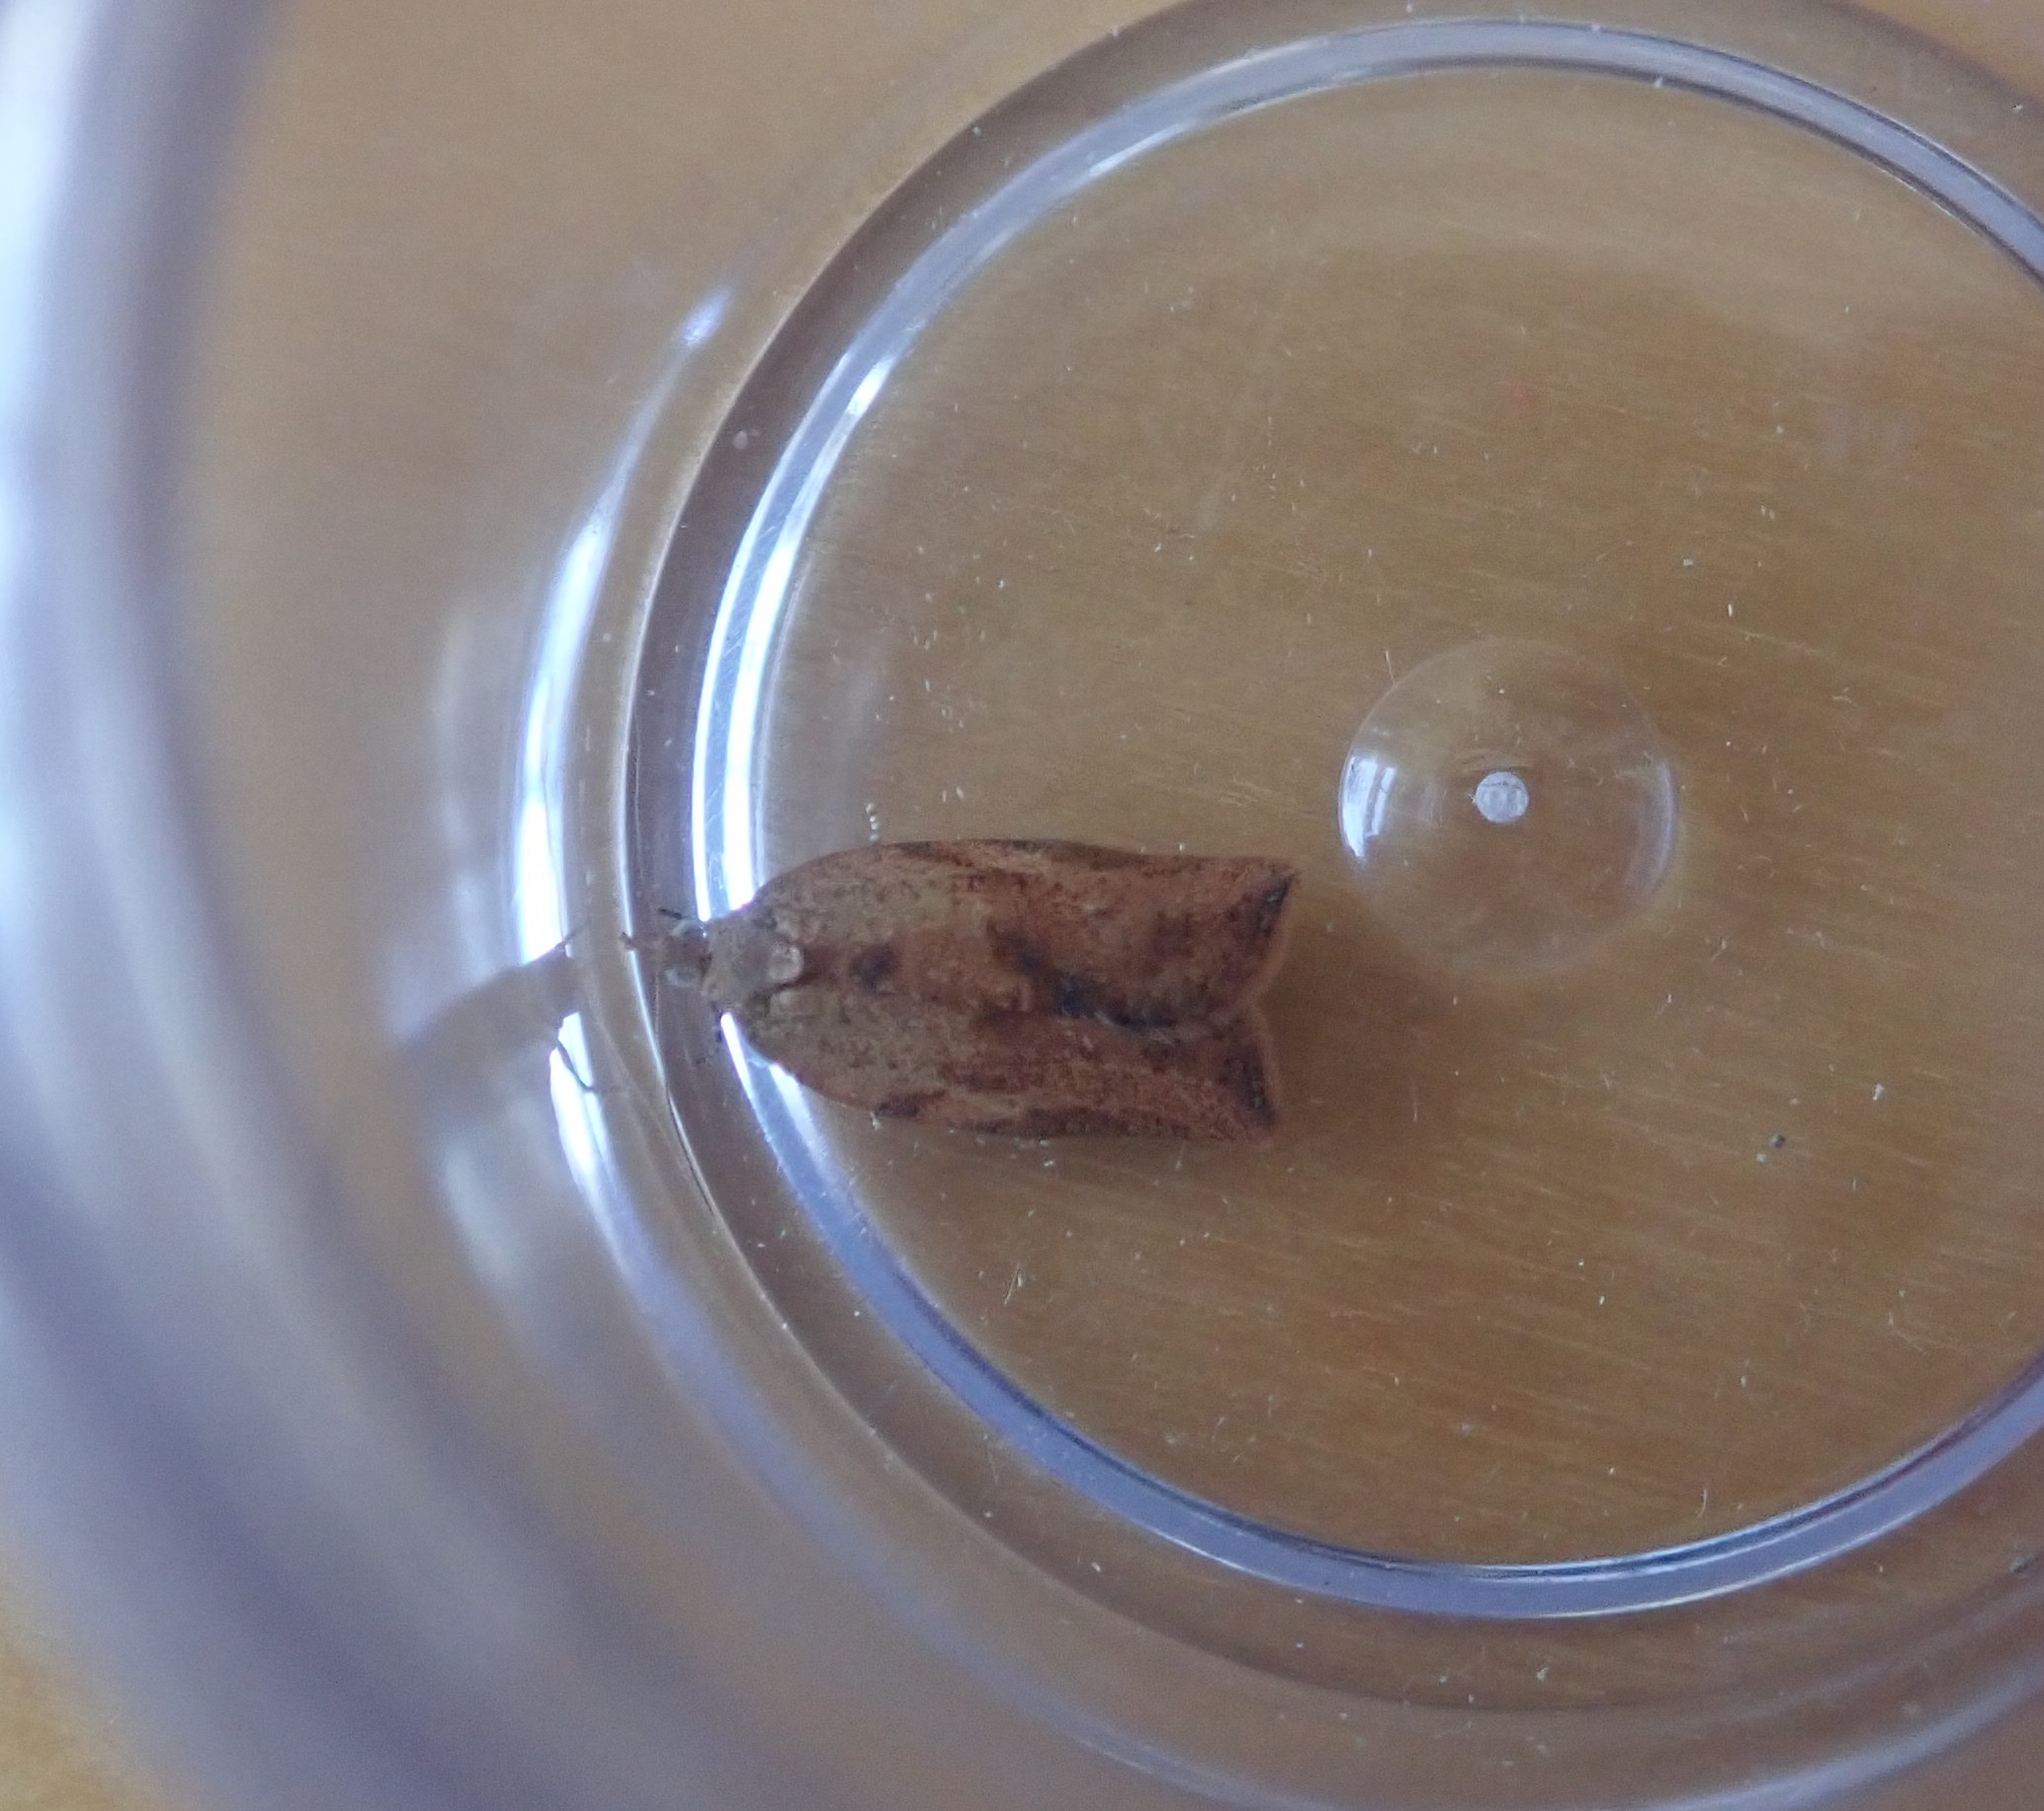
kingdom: Animalia
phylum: Arthropoda
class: Insecta
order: Lepidoptera
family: Tortricidae
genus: Epiphyas
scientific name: Epiphyas postvittana
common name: Light brown apple moth
